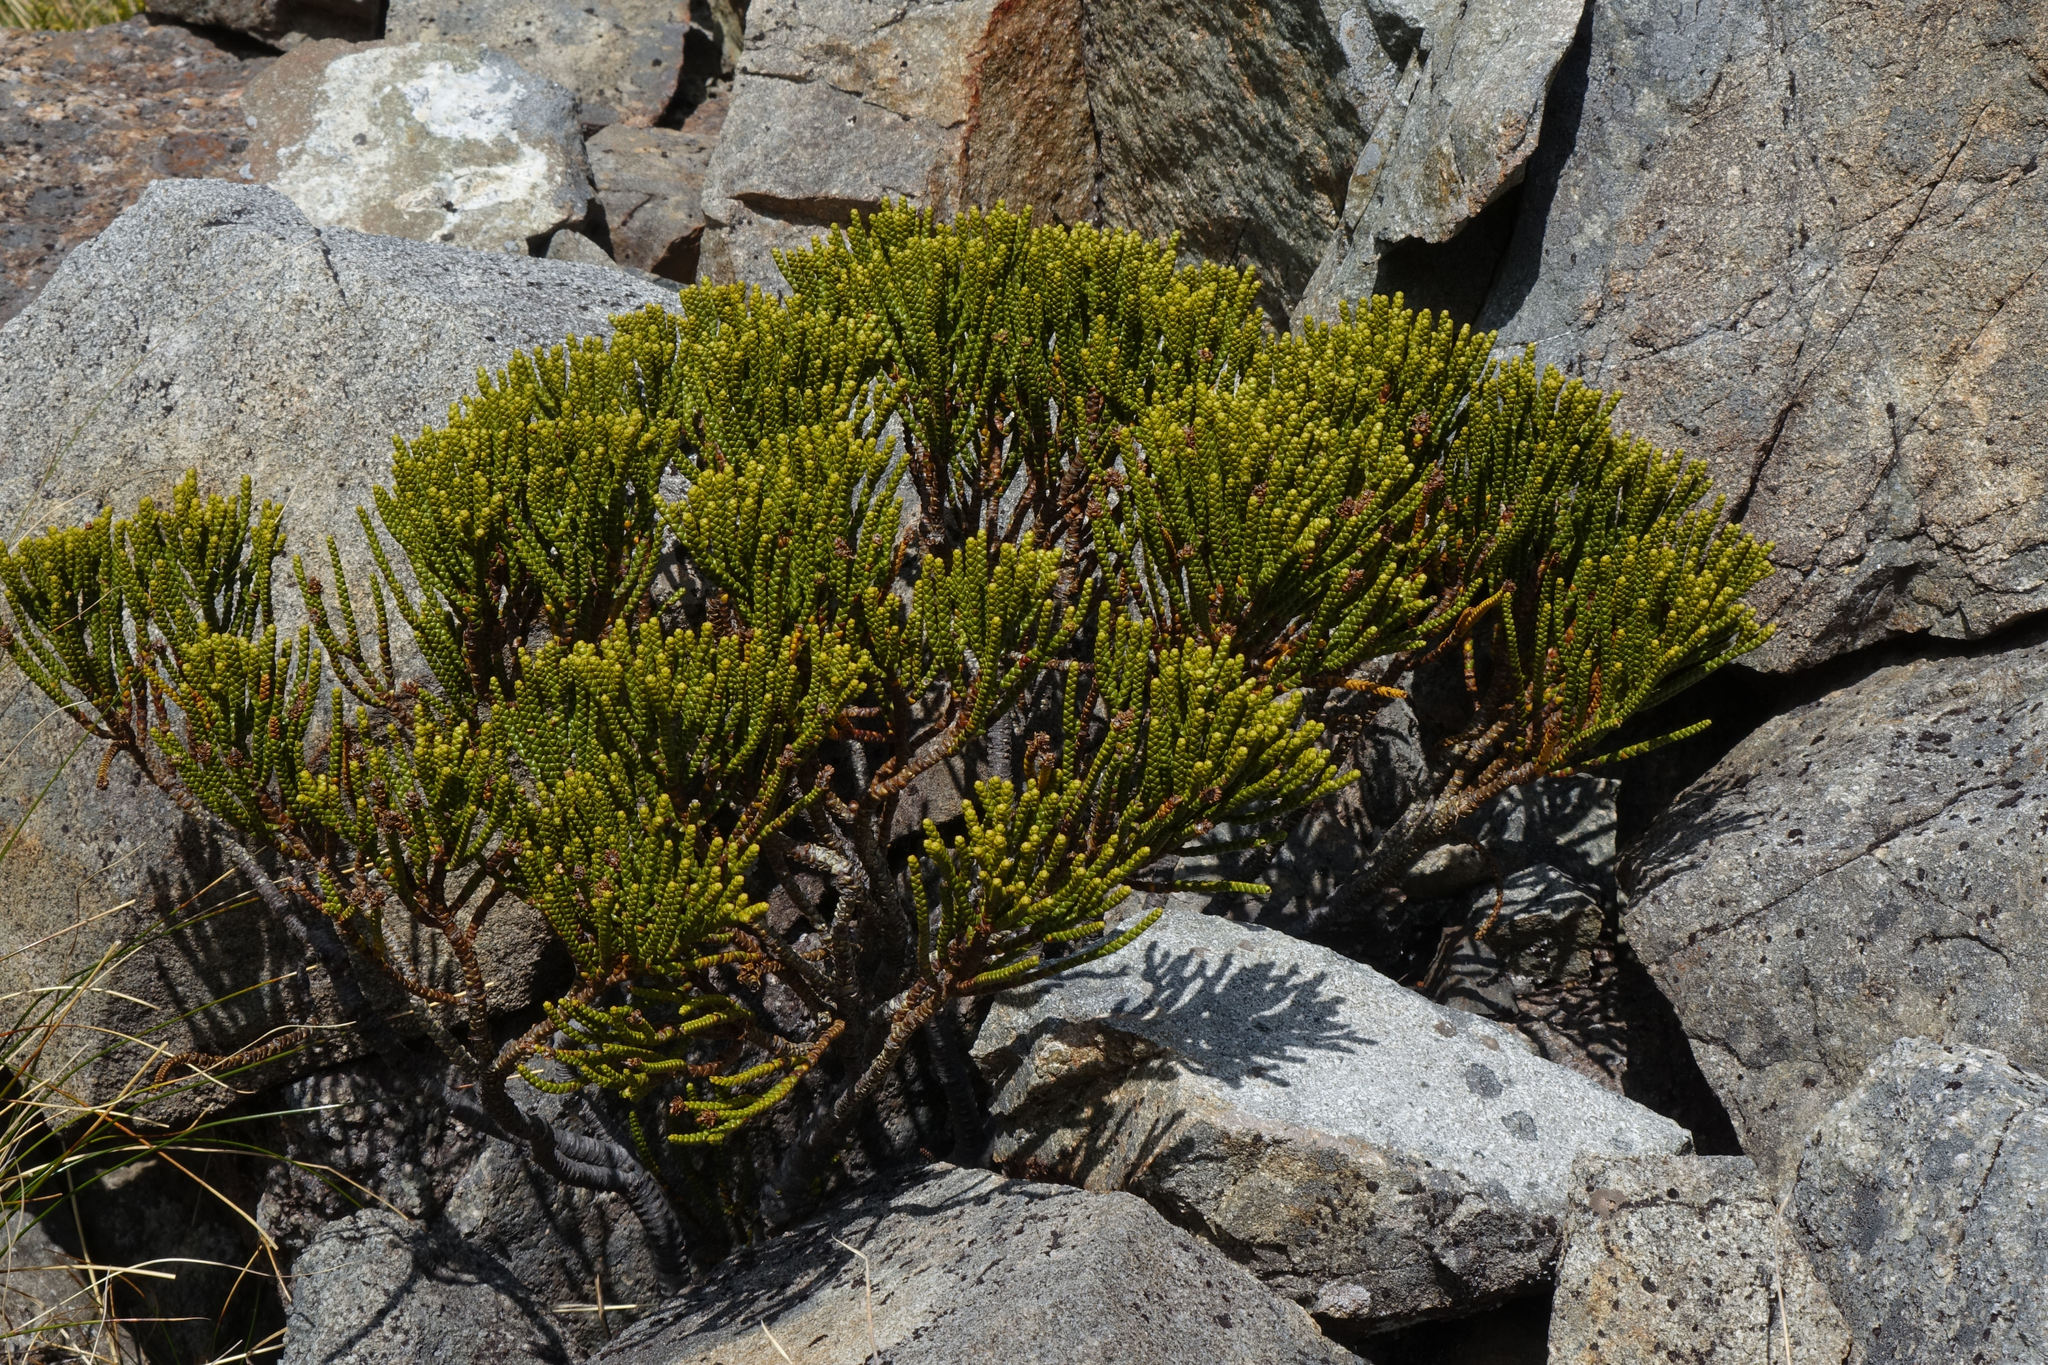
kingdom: Plantae
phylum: Tracheophyta
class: Magnoliopsida
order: Lamiales
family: Plantaginaceae
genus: Veronica
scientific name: Veronica hectorii
